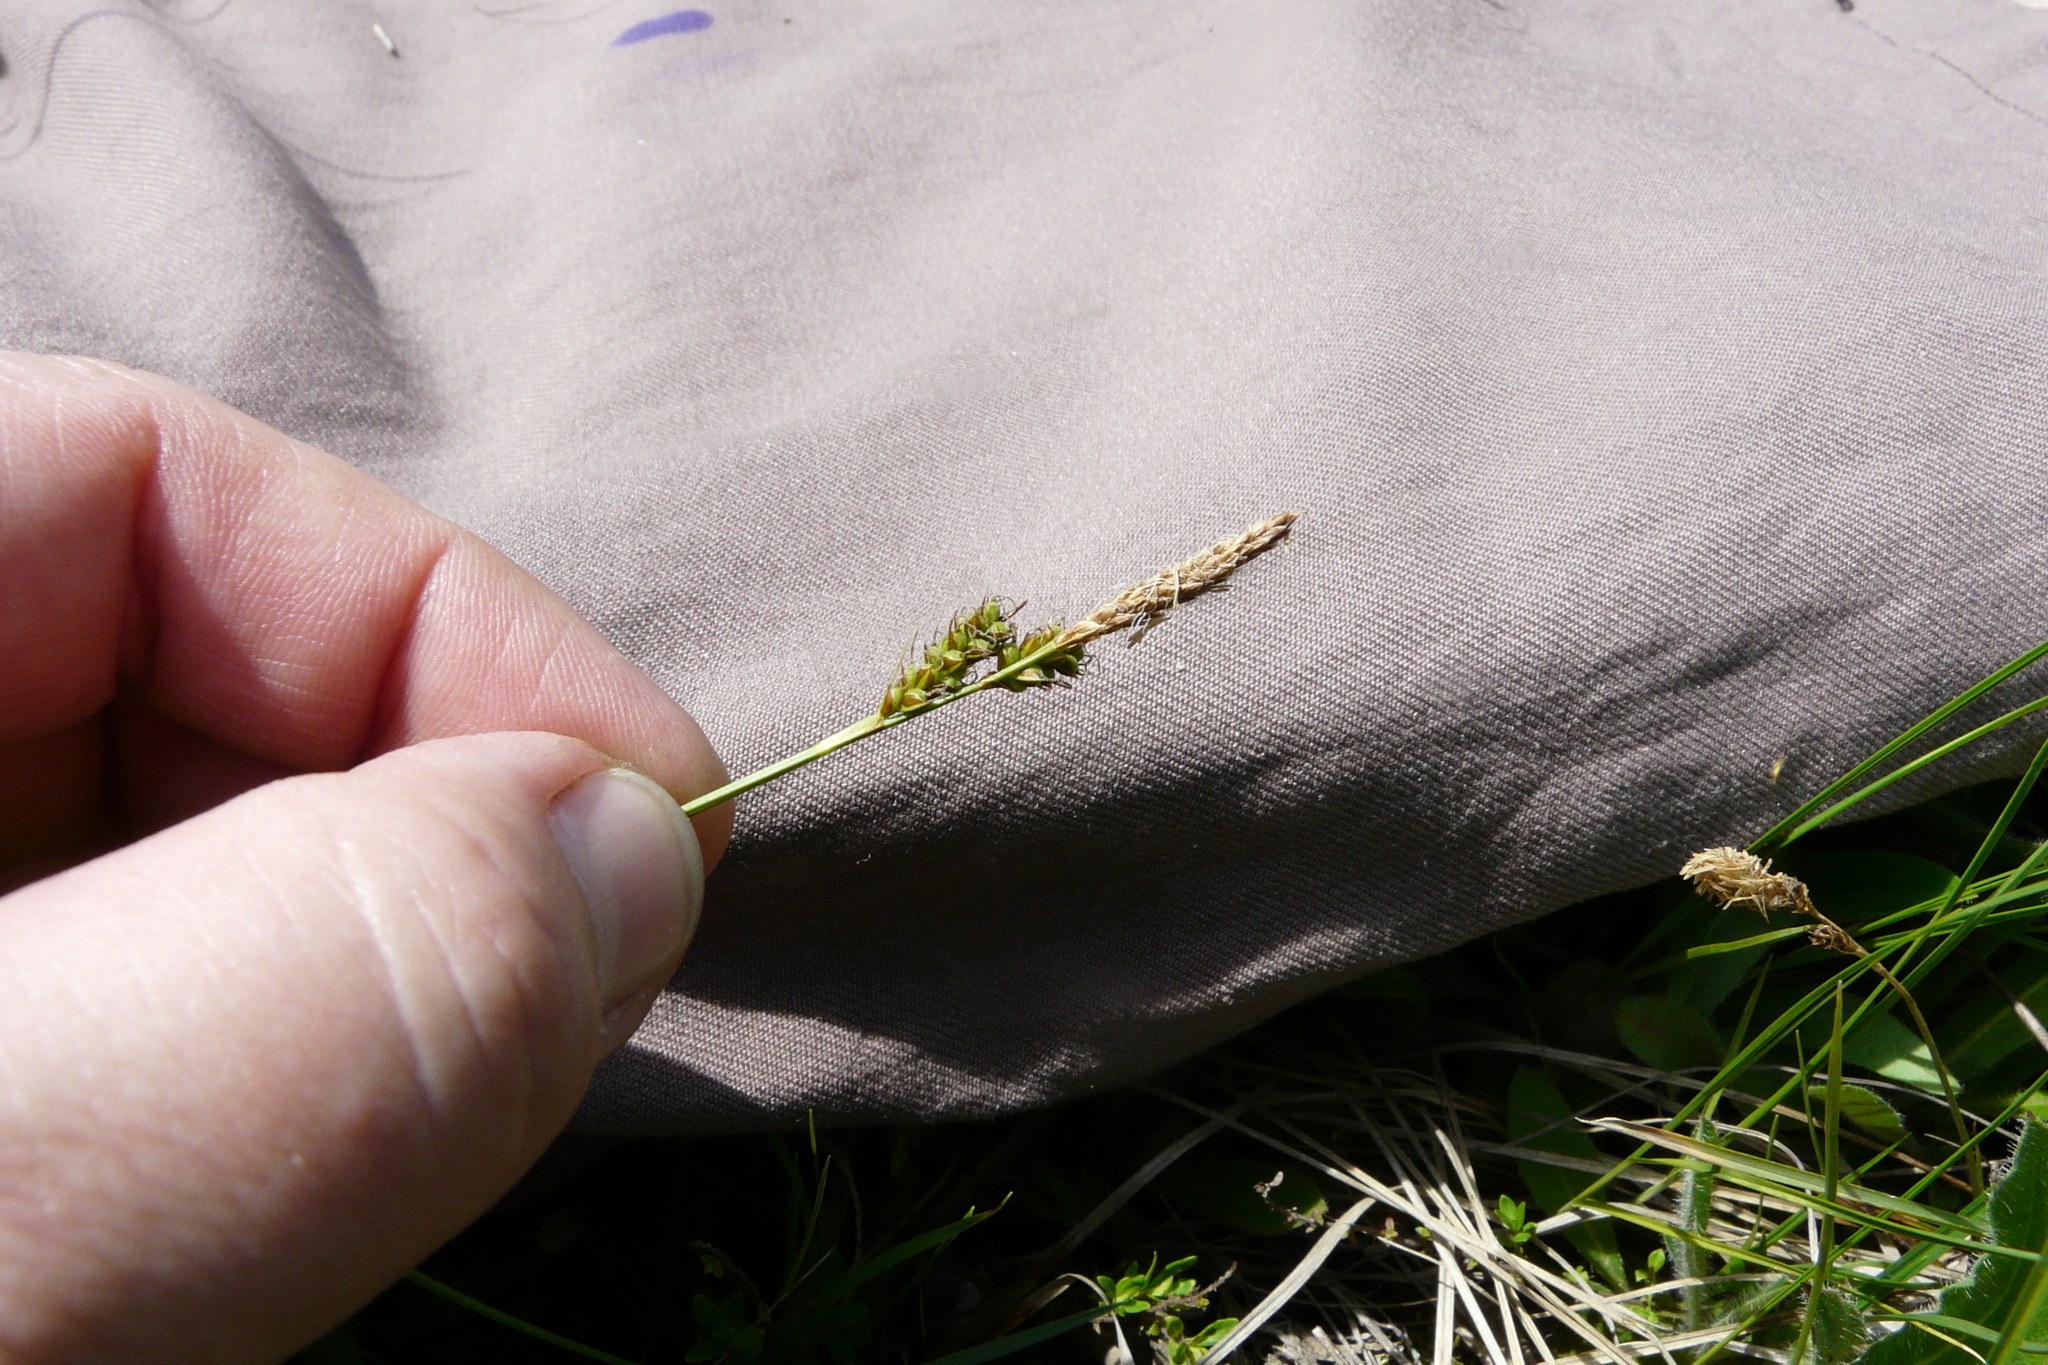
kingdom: Plantae
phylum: Tracheophyta
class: Liliopsida
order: Poales
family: Cyperaceae
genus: Carex
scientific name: Carex caryophyllea
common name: Spring sedge
